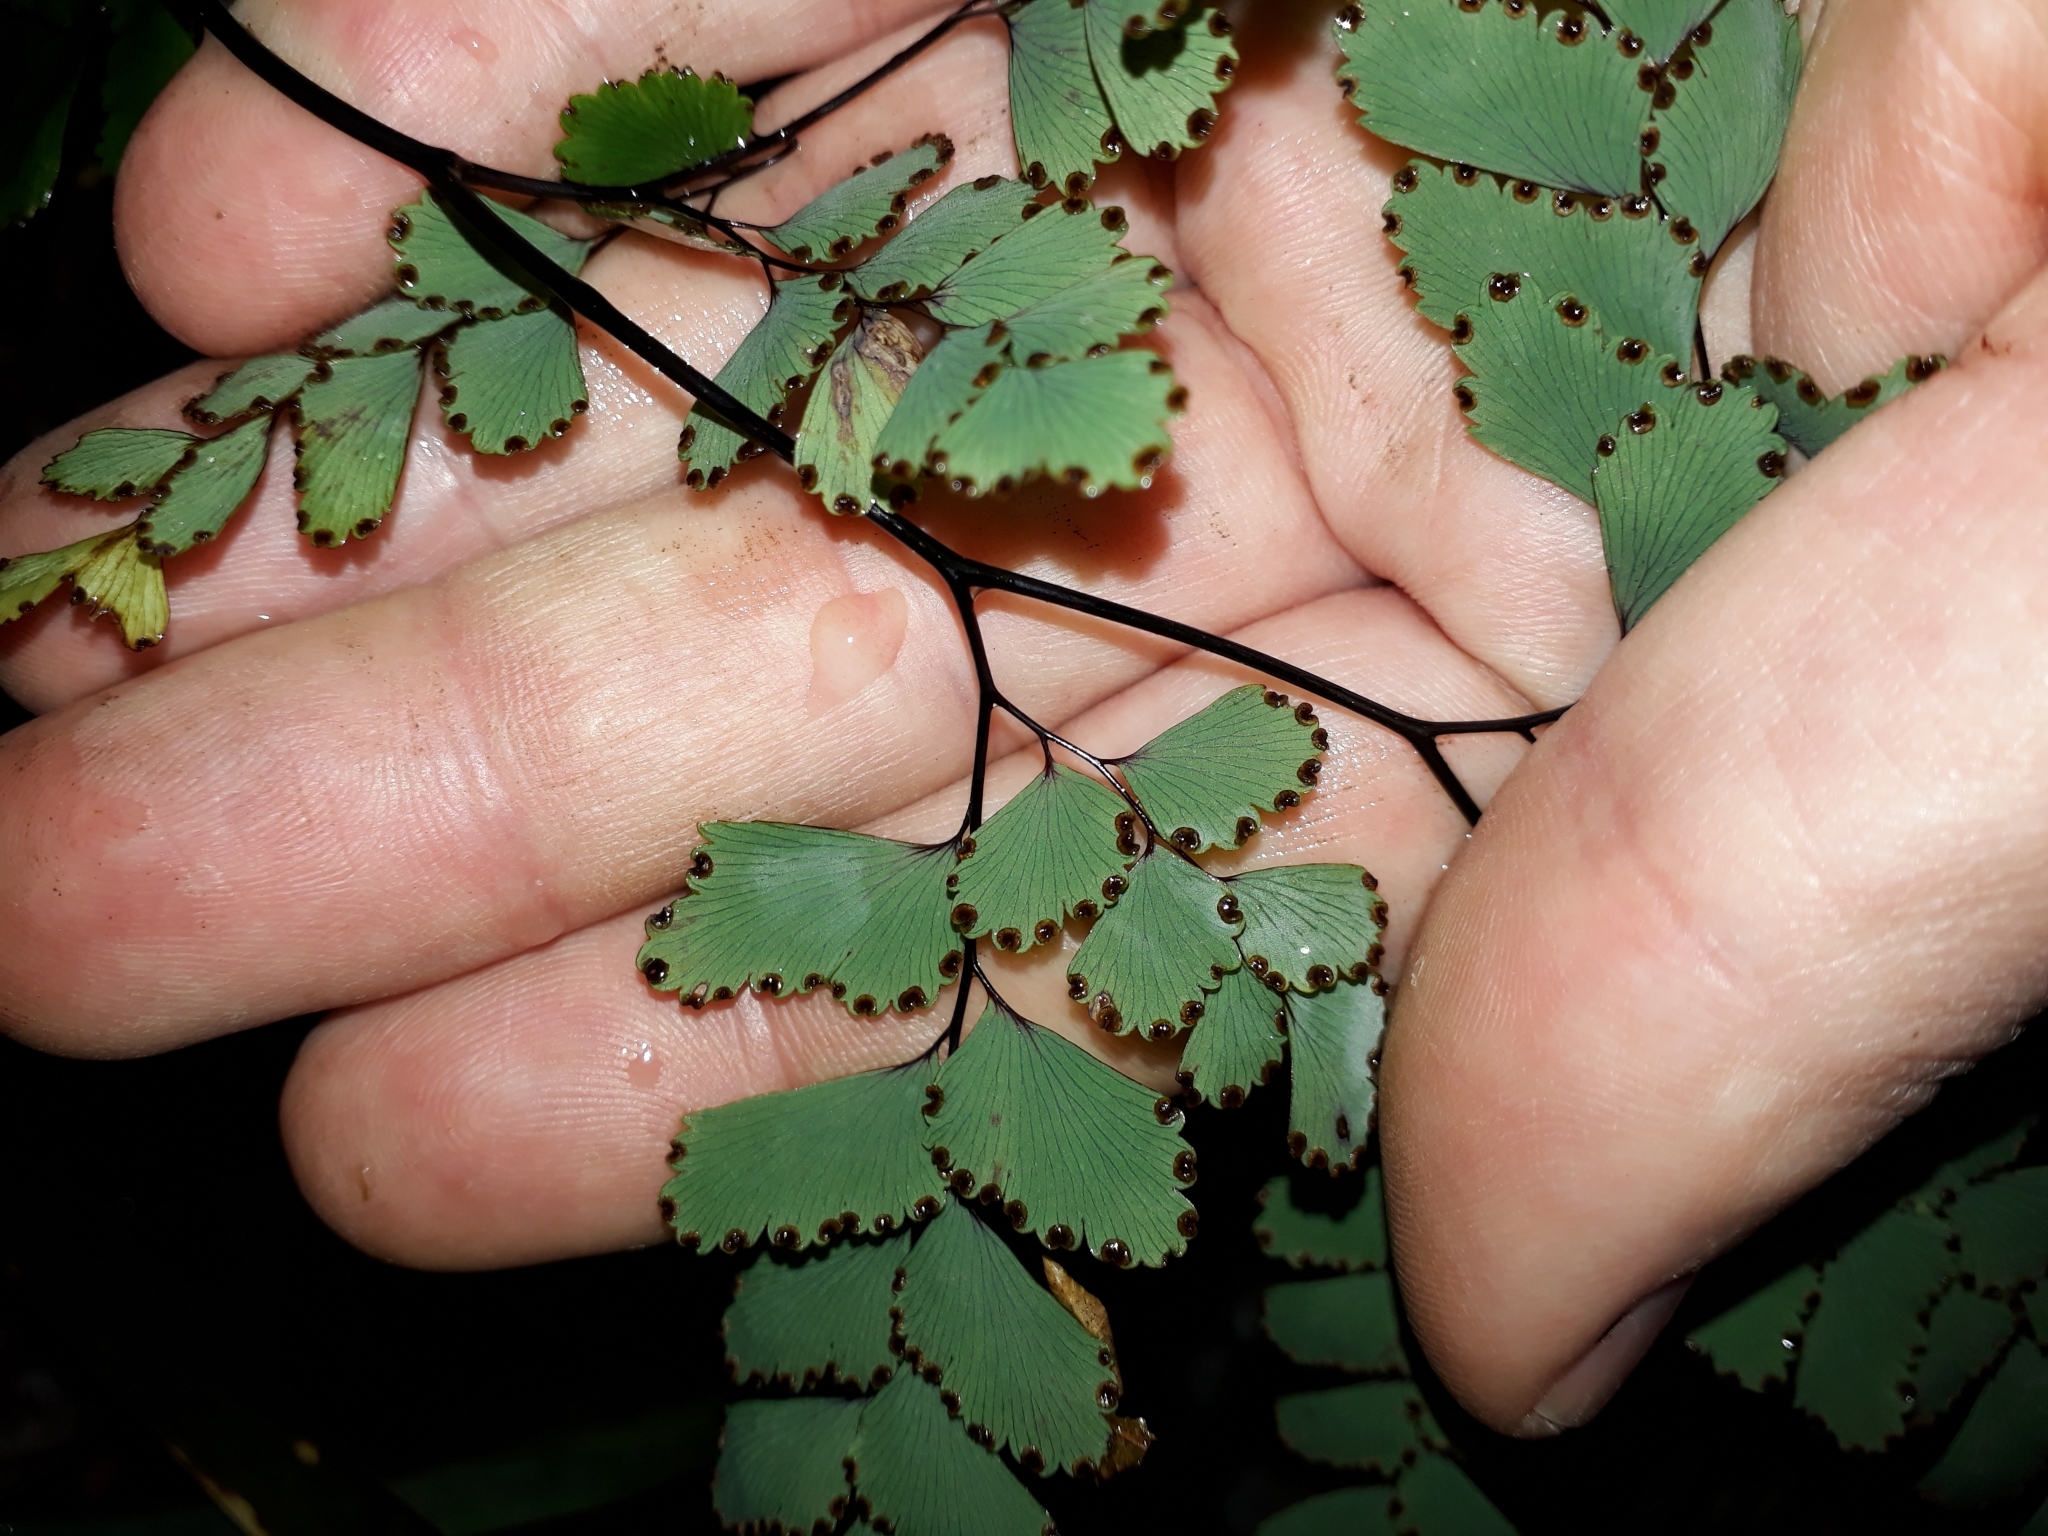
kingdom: Plantae
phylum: Tracheophyta
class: Polypodiopsida
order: Polypodiales
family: Pteridaceae
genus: Adiantum
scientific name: Adiantum cunninghamii
